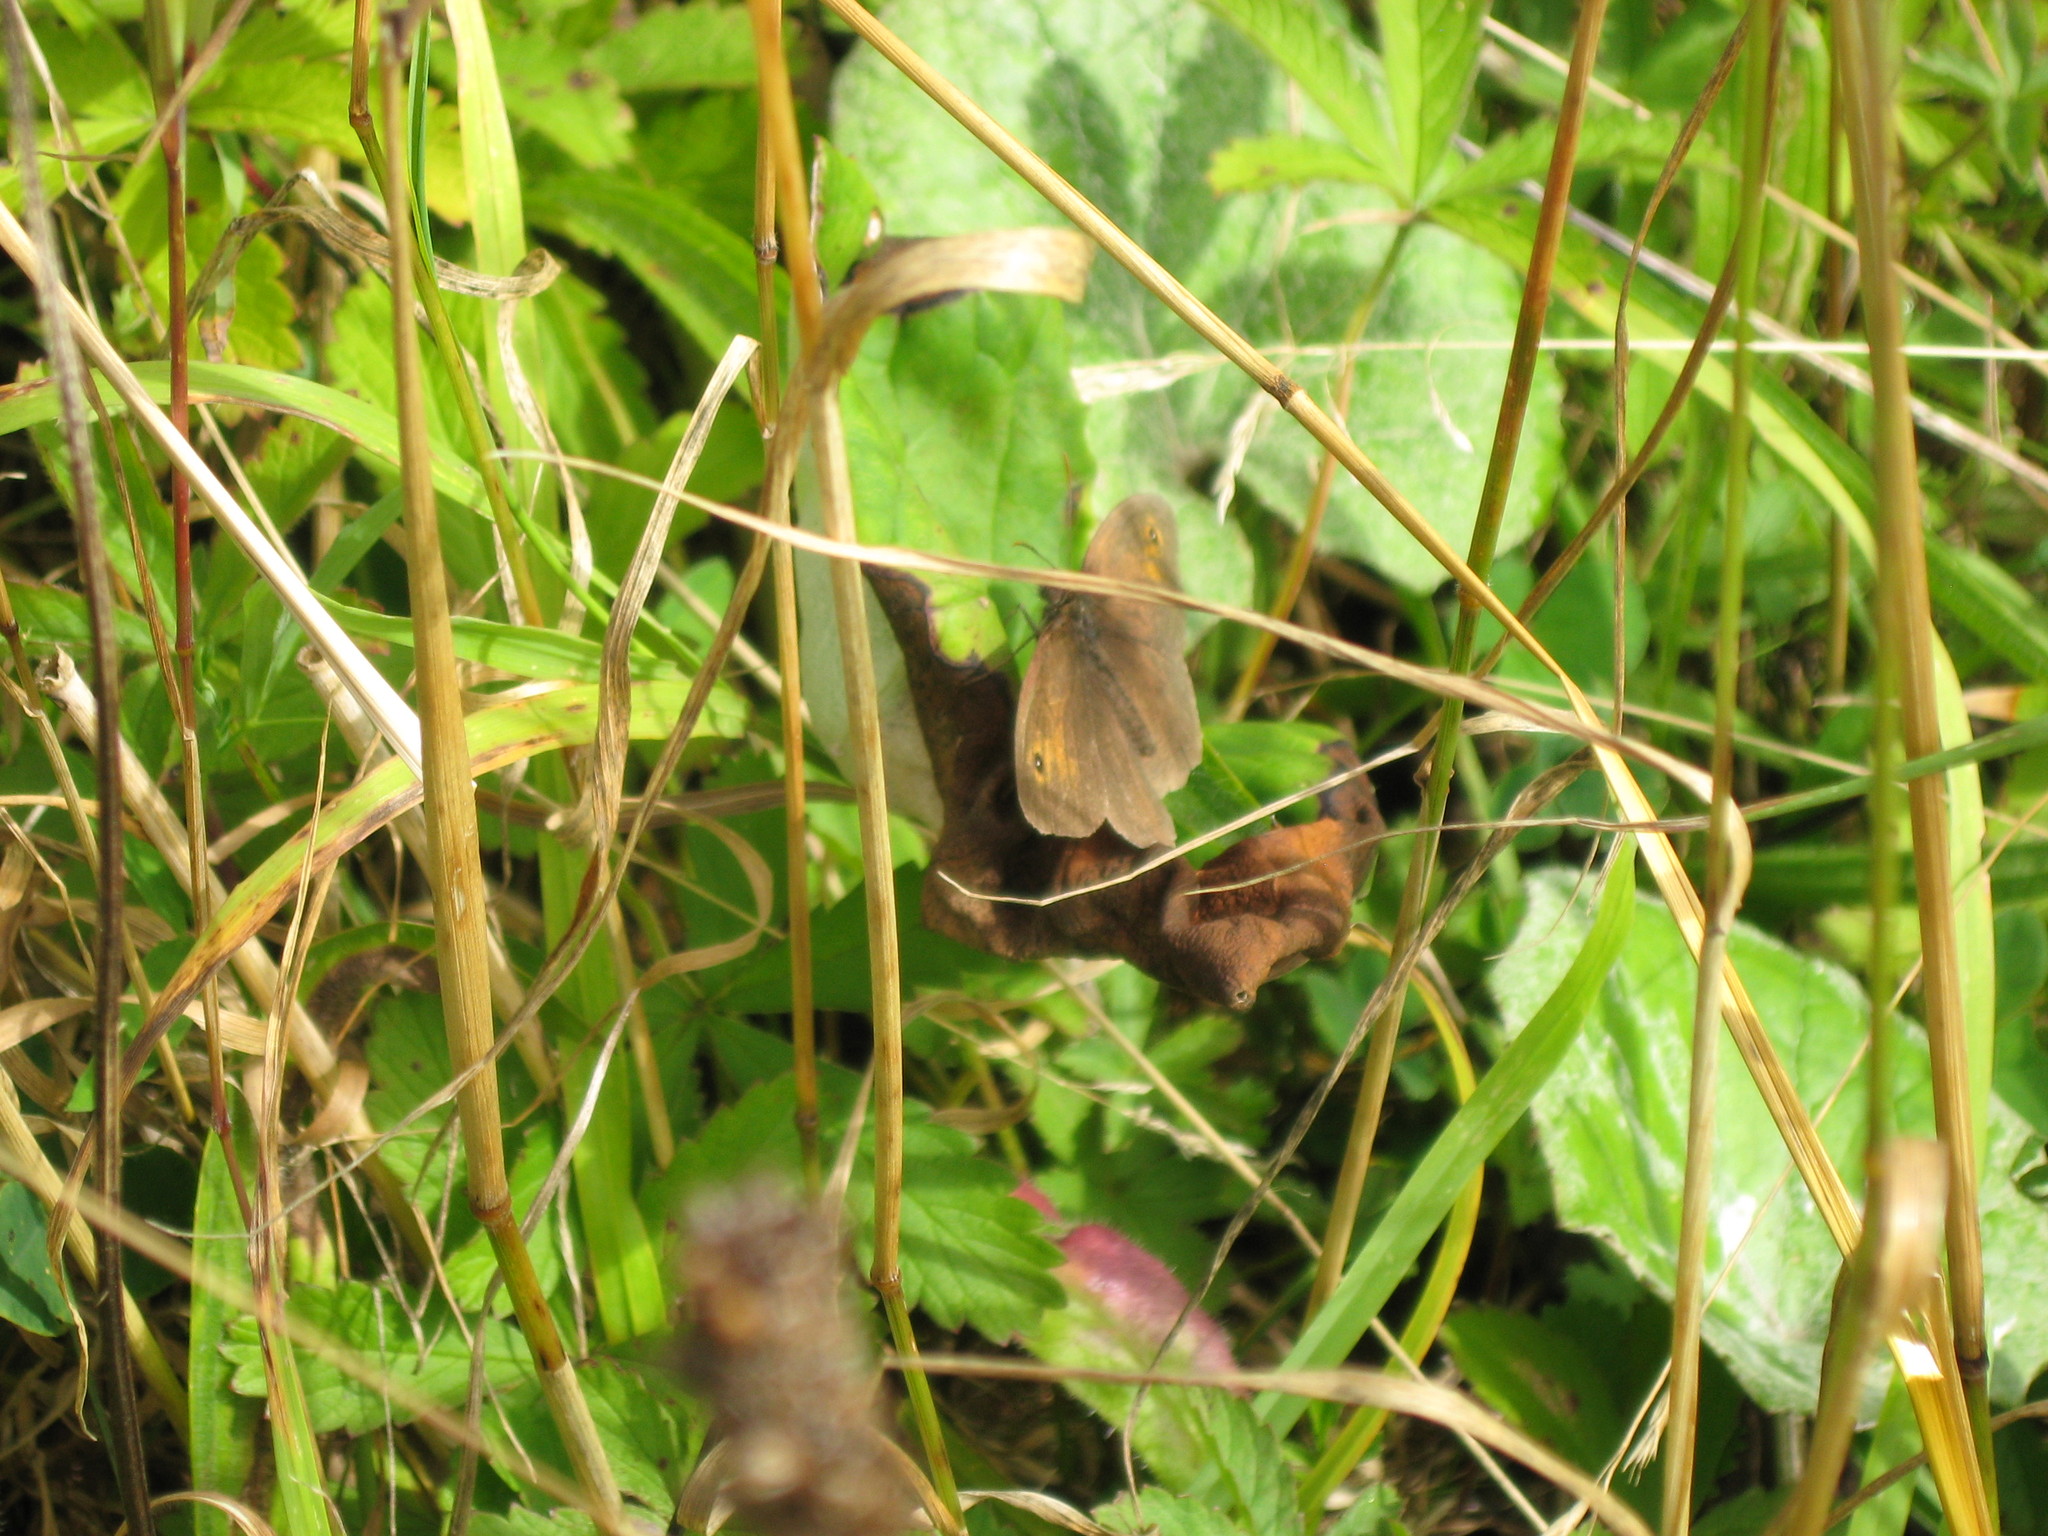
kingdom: Animalia
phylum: Arthropoda
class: Insecta
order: Lepidoptera
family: Nymphalidae
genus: Maniola
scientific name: Maniola jurtina
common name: Meadow brown
